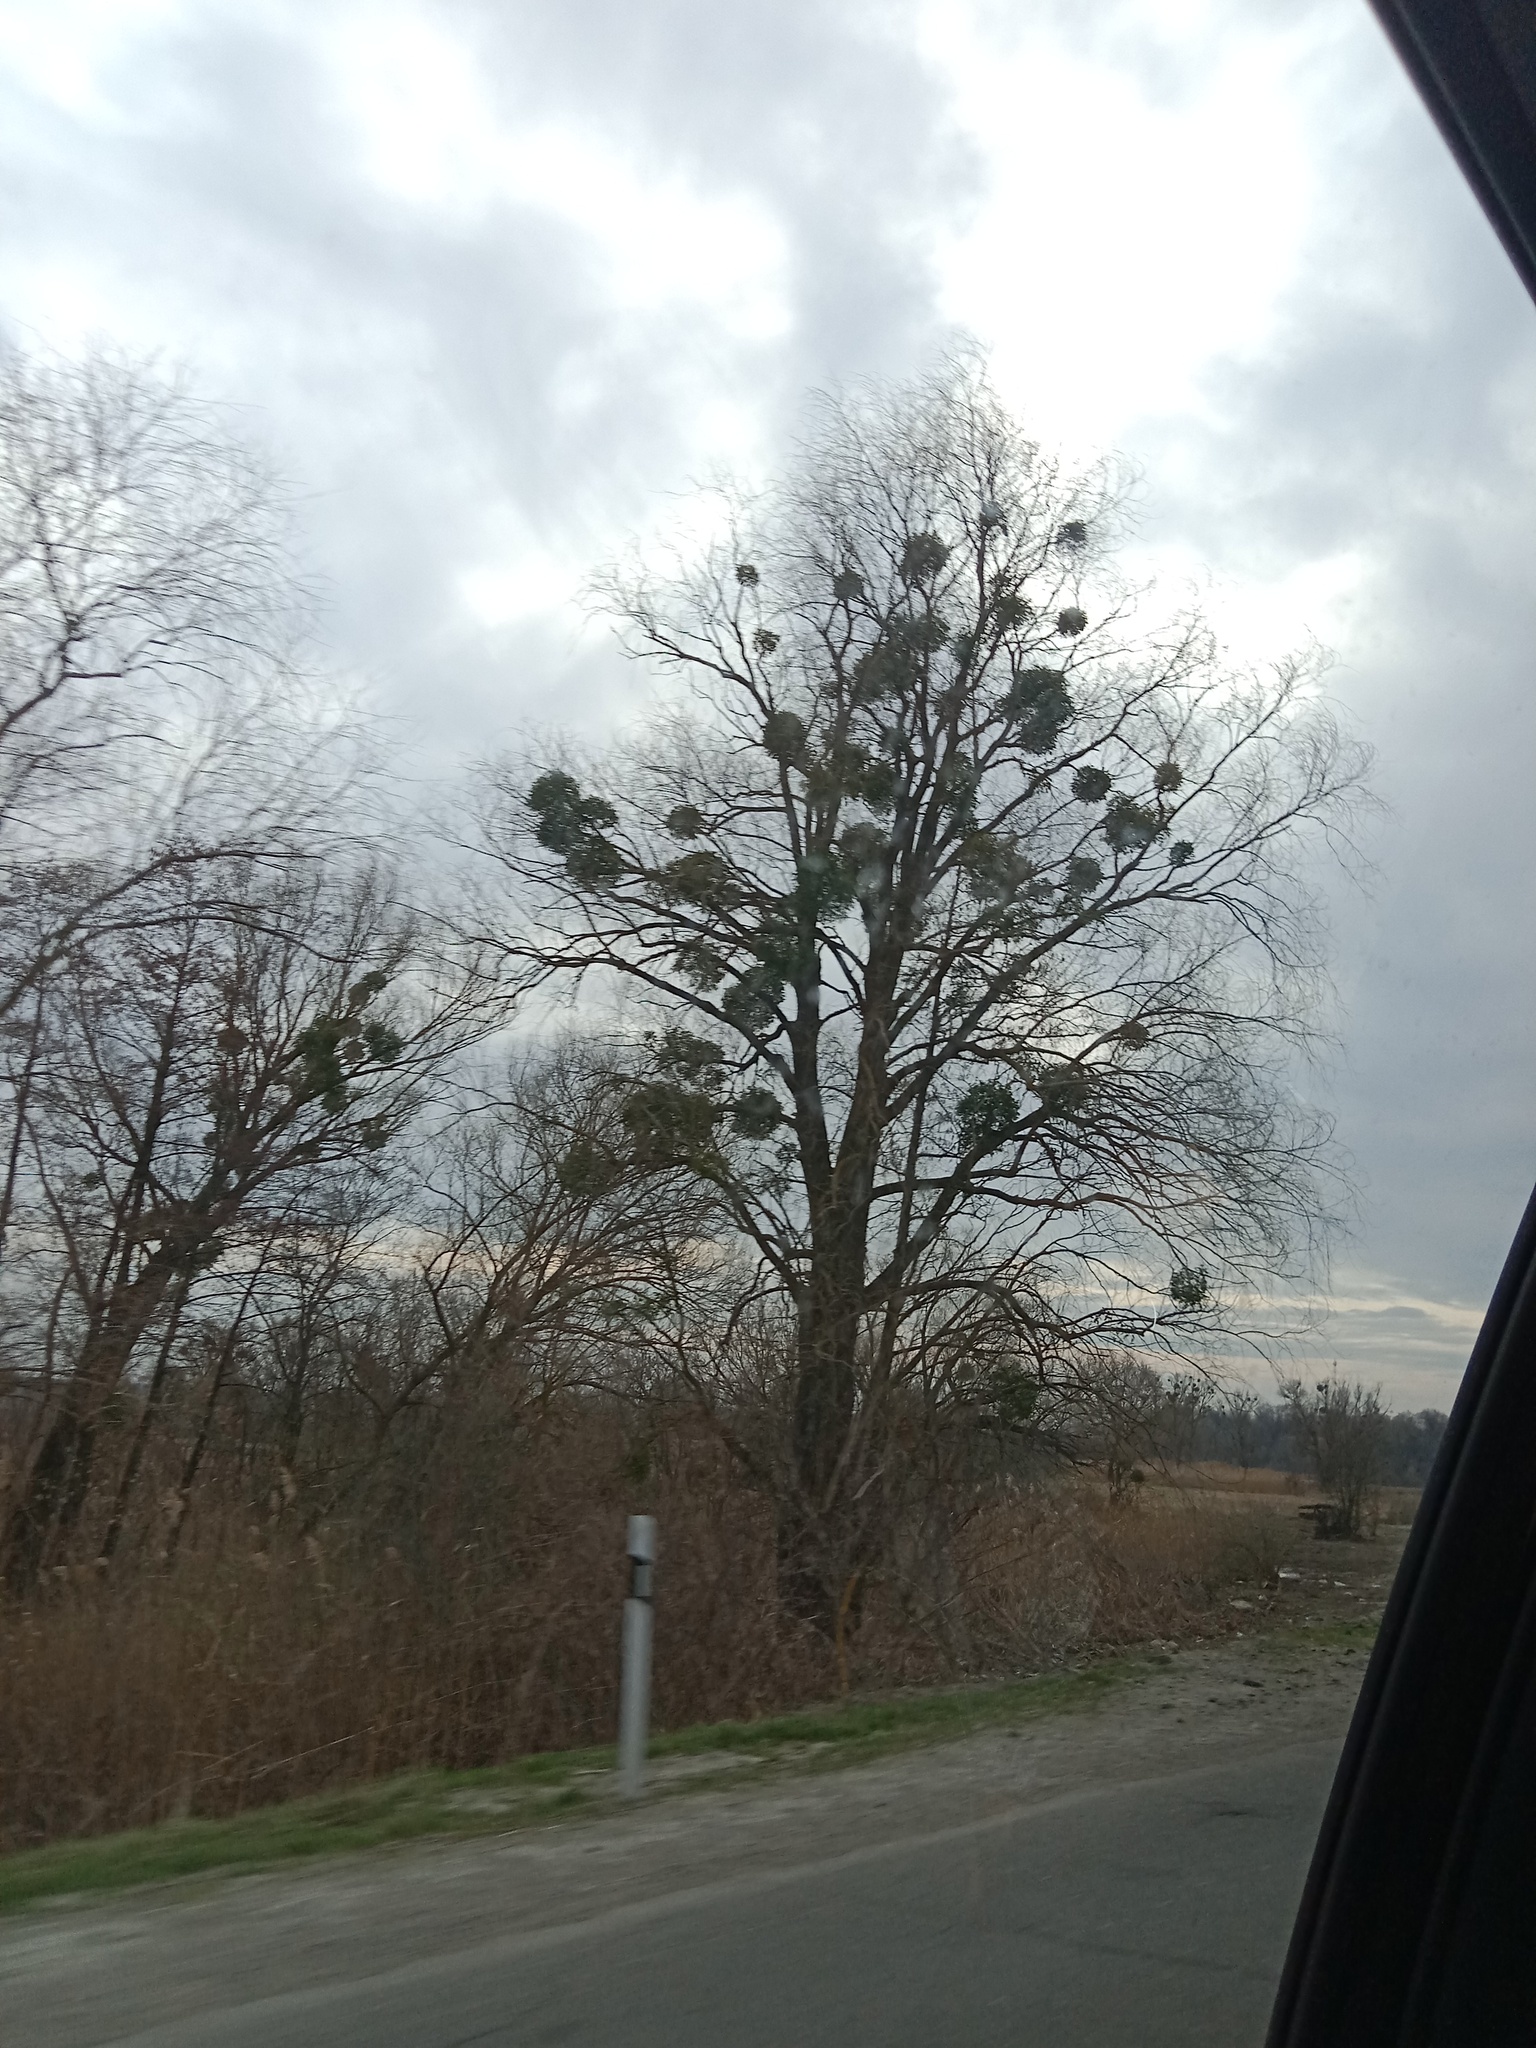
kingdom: Plantae
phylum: Tracheophyta
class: Magnoliopsida
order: Santalales
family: Viscaceae
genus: Viscum
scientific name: Viscum album
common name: Mistletoe
